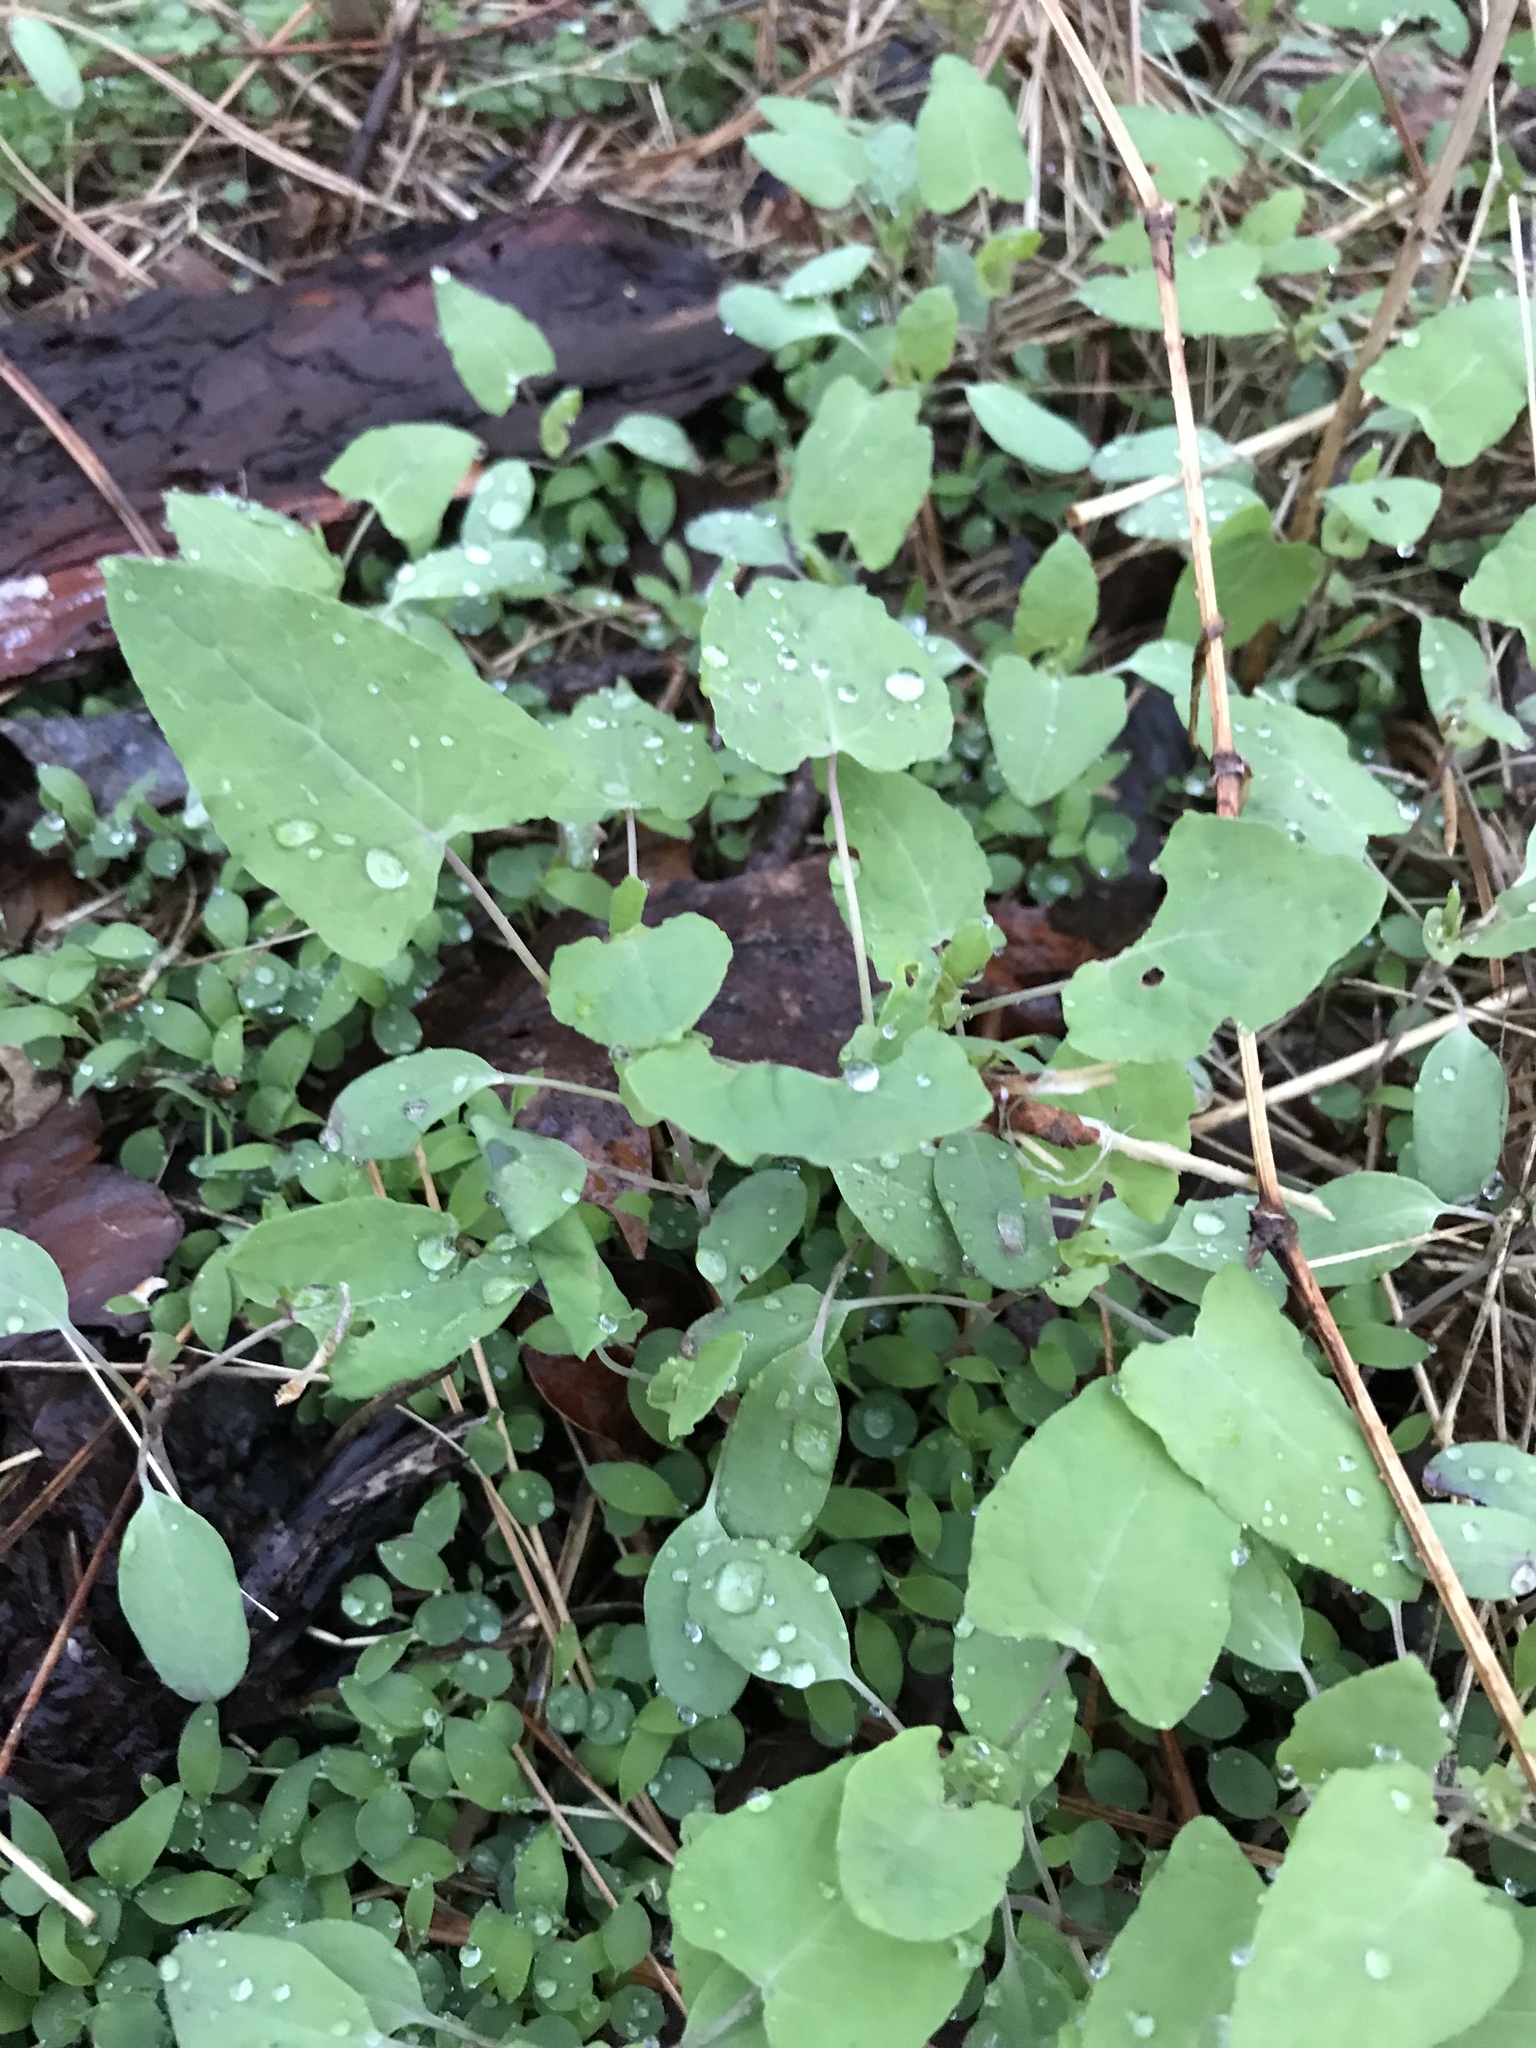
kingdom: Plantae
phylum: Tracheophyta
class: Magnoliopsida
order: Caryophyllales
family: Polygonaceae
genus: Persicaria
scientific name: Persicaria perfoliata
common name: Asiatic tearthumb
